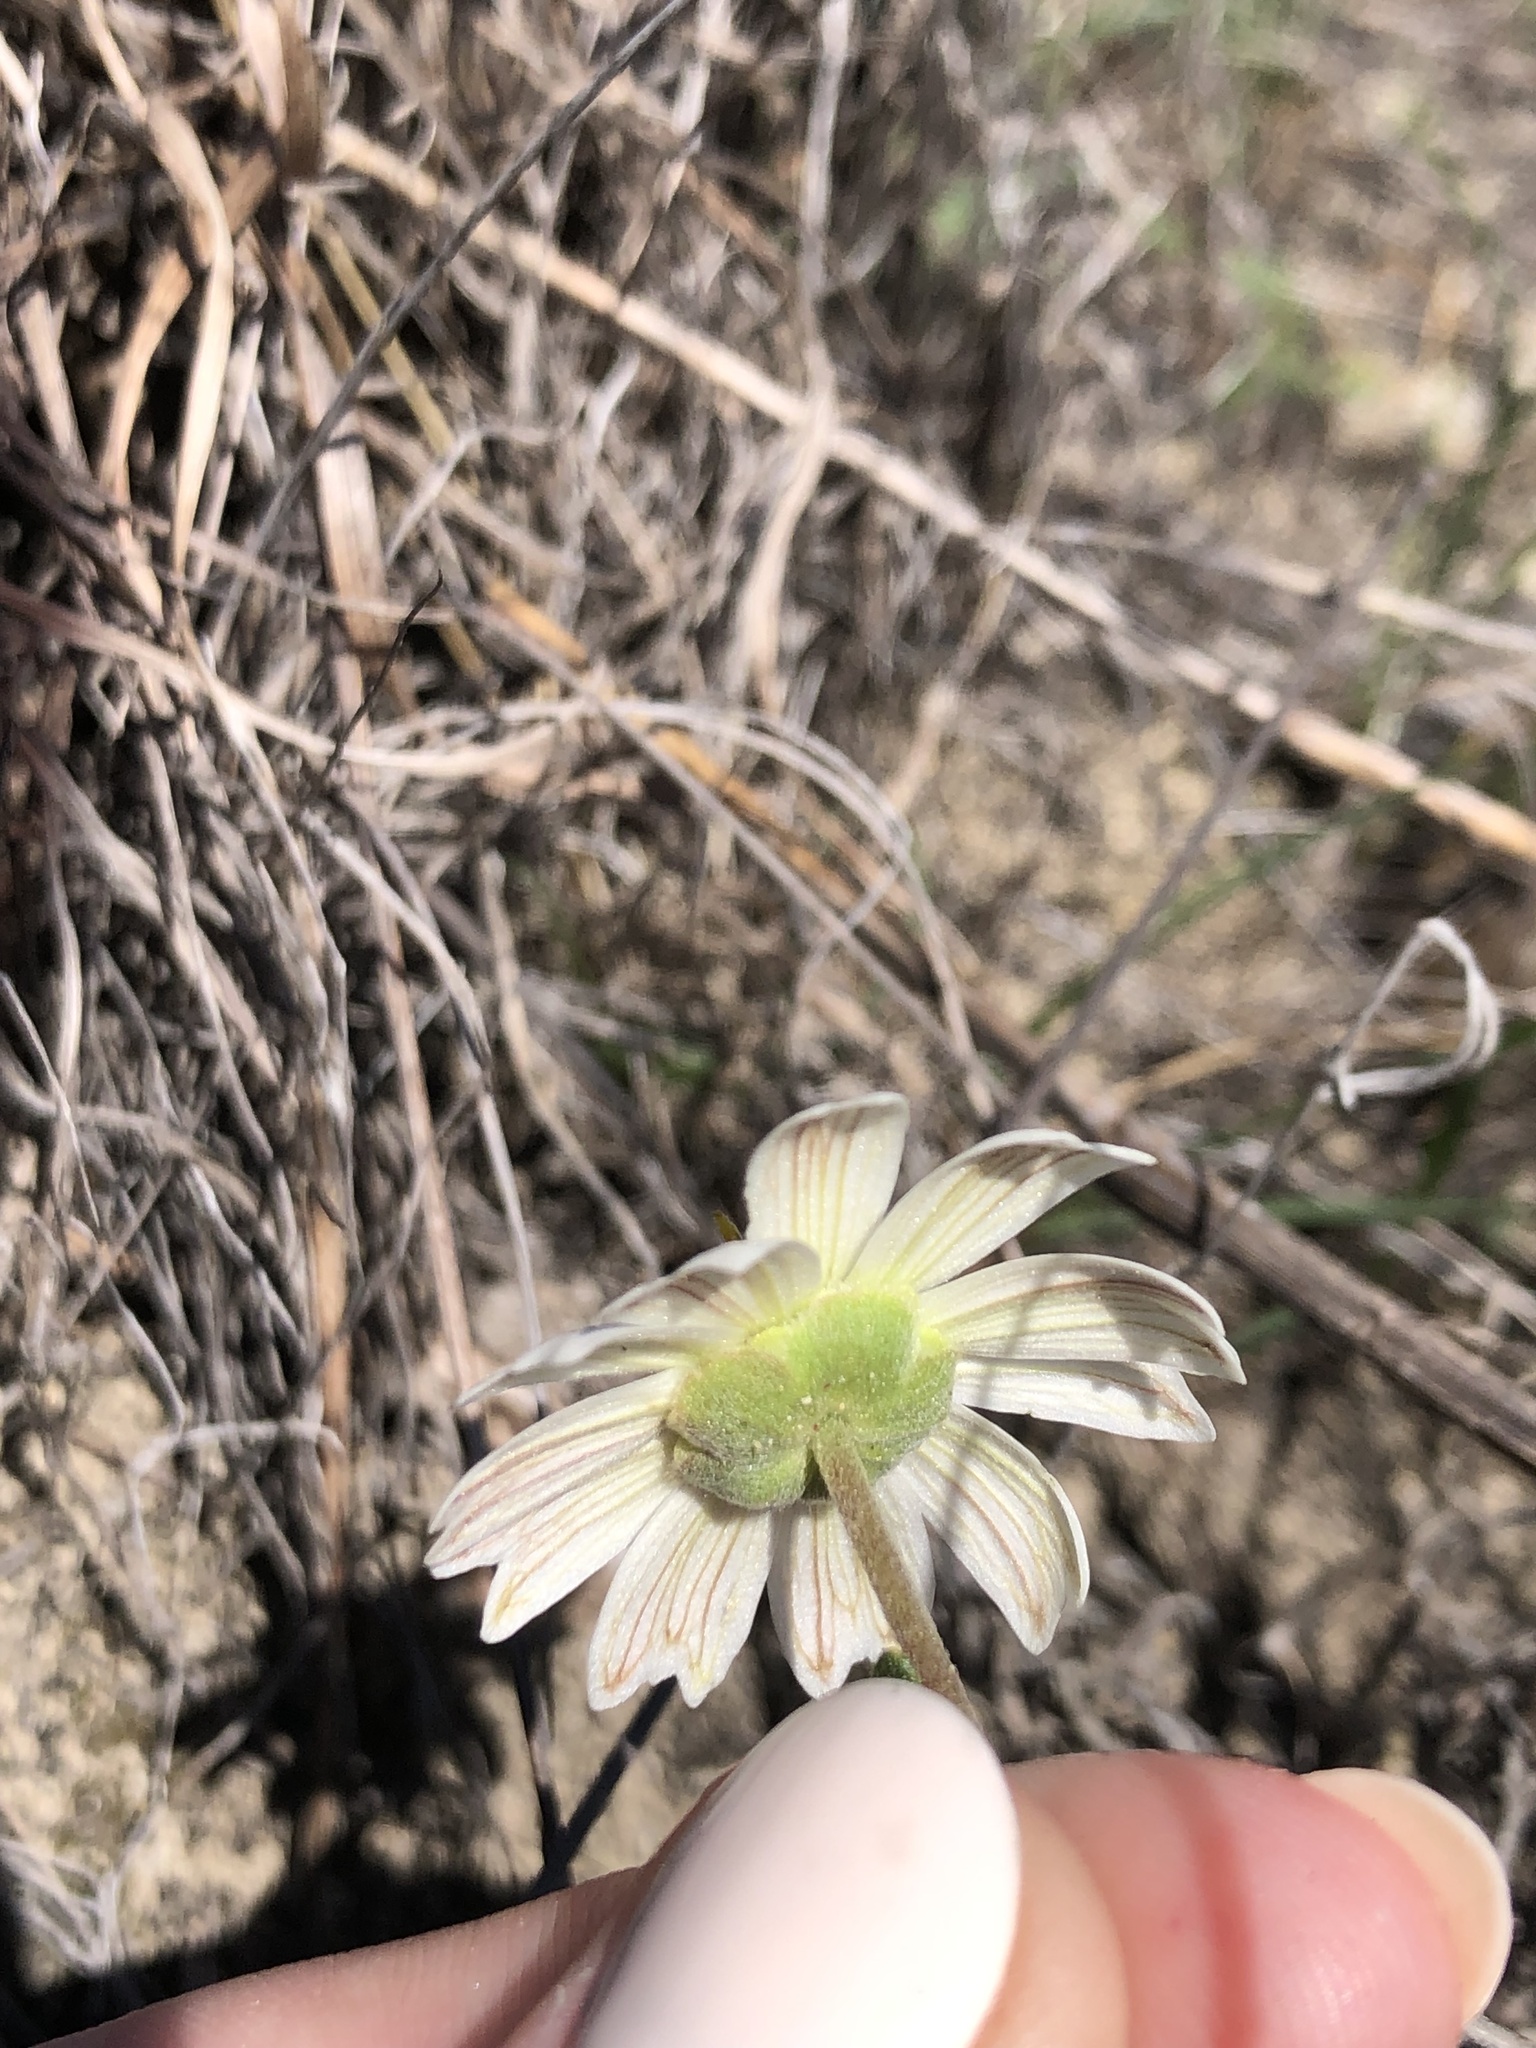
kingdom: Plantae
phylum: Tracheophyta
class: Magnoliopsida
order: Asterales
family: Asteraceae
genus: Melampodium
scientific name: Melampodium leucanthum
